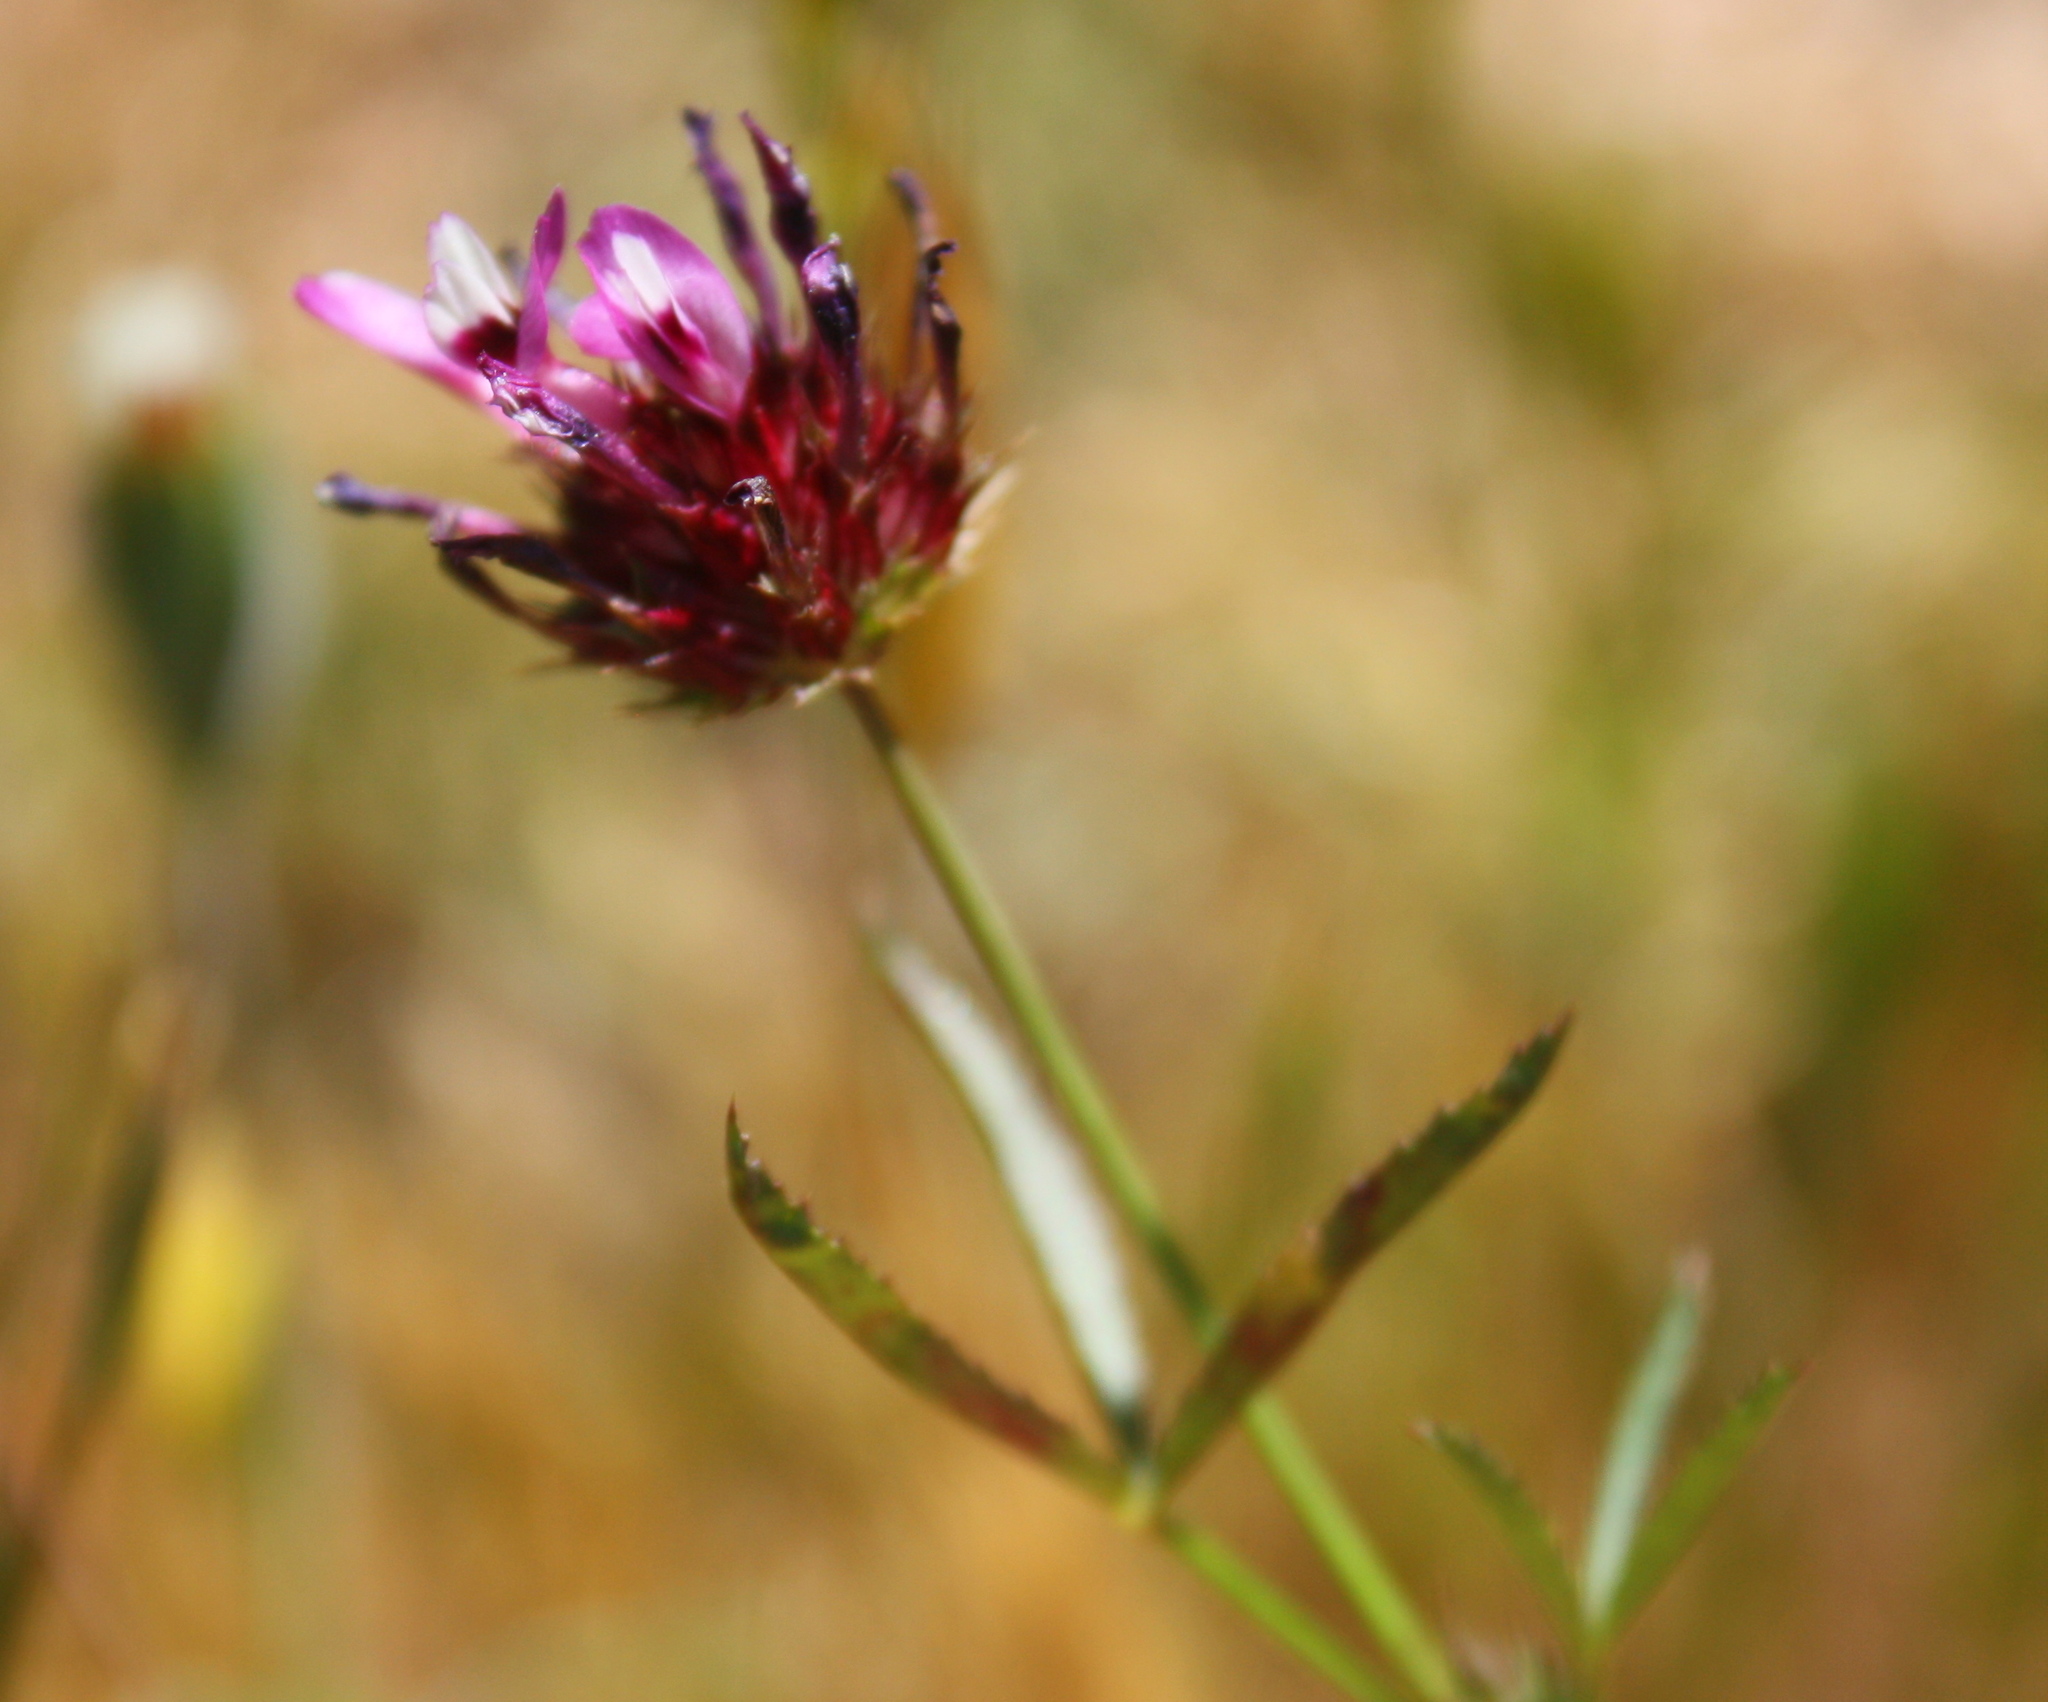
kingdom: Plantae
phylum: Tracheophyta
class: Magnoliopsida
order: Fabales
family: Fabaceae
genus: Trifolium
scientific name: Trifolium willdenovii
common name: Tomcat clover
